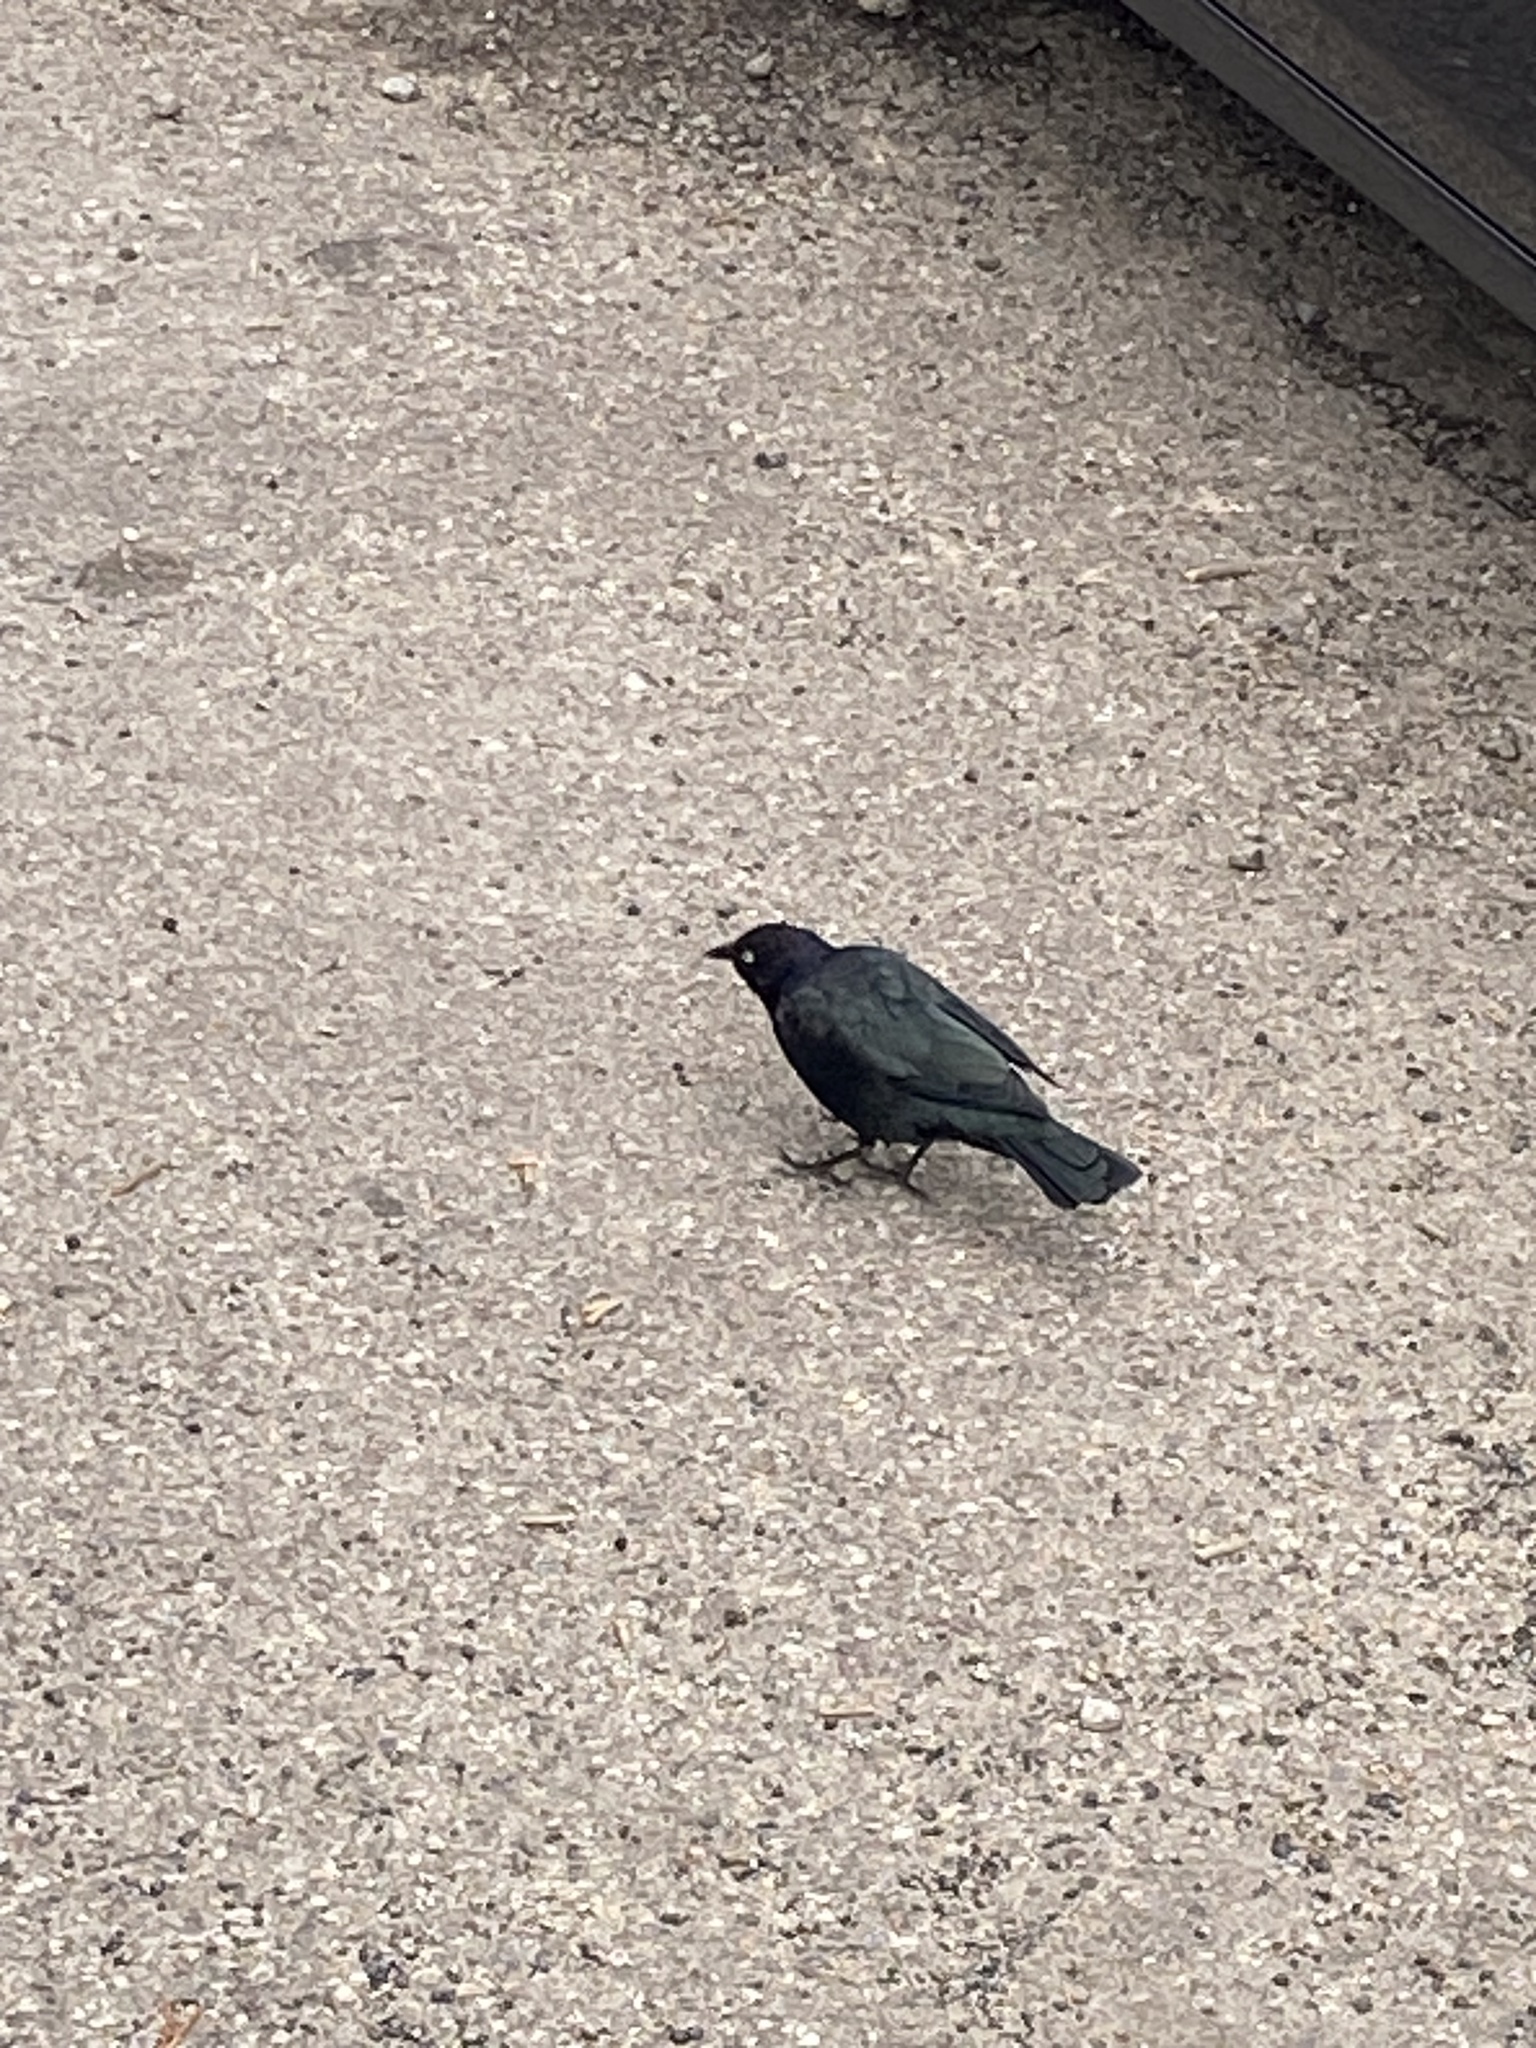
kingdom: Animalia
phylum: Chordata
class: Aves
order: Passeriformes
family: Icteridae
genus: Euphagus
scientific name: Euphagus cyanocephalus
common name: Brewer's blackbird
